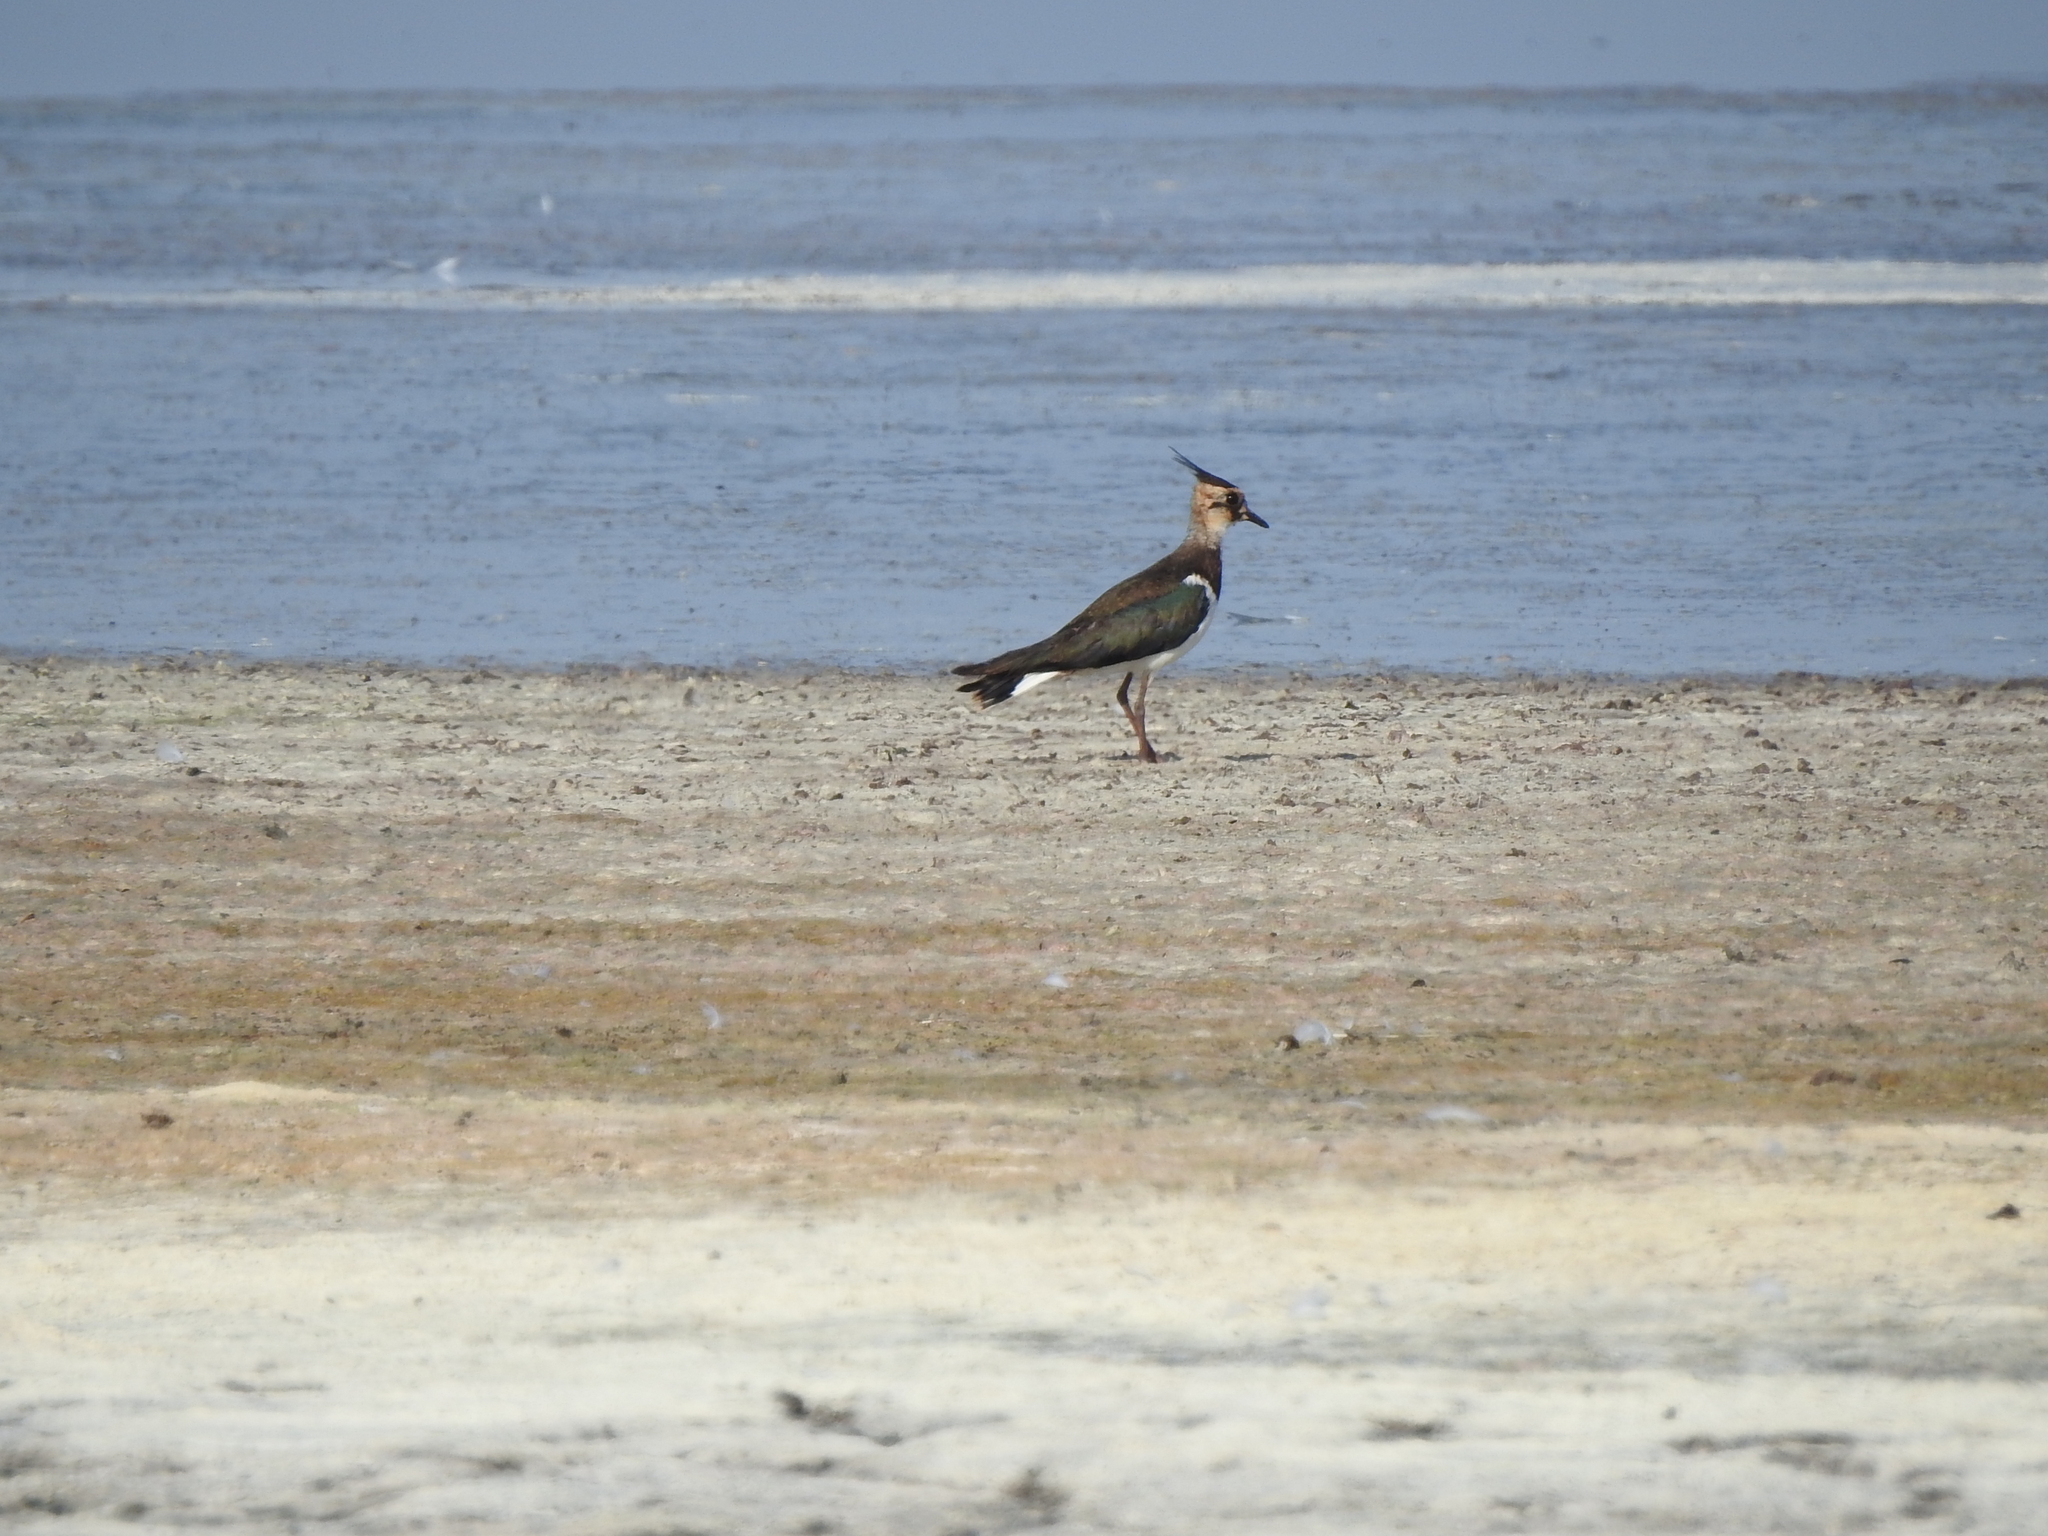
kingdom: Animalia
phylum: Chordata
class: Aves
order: Charadriiformes
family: Charadriidae
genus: Vanellus
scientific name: Vanellus vanellus
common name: Northern lapwing
